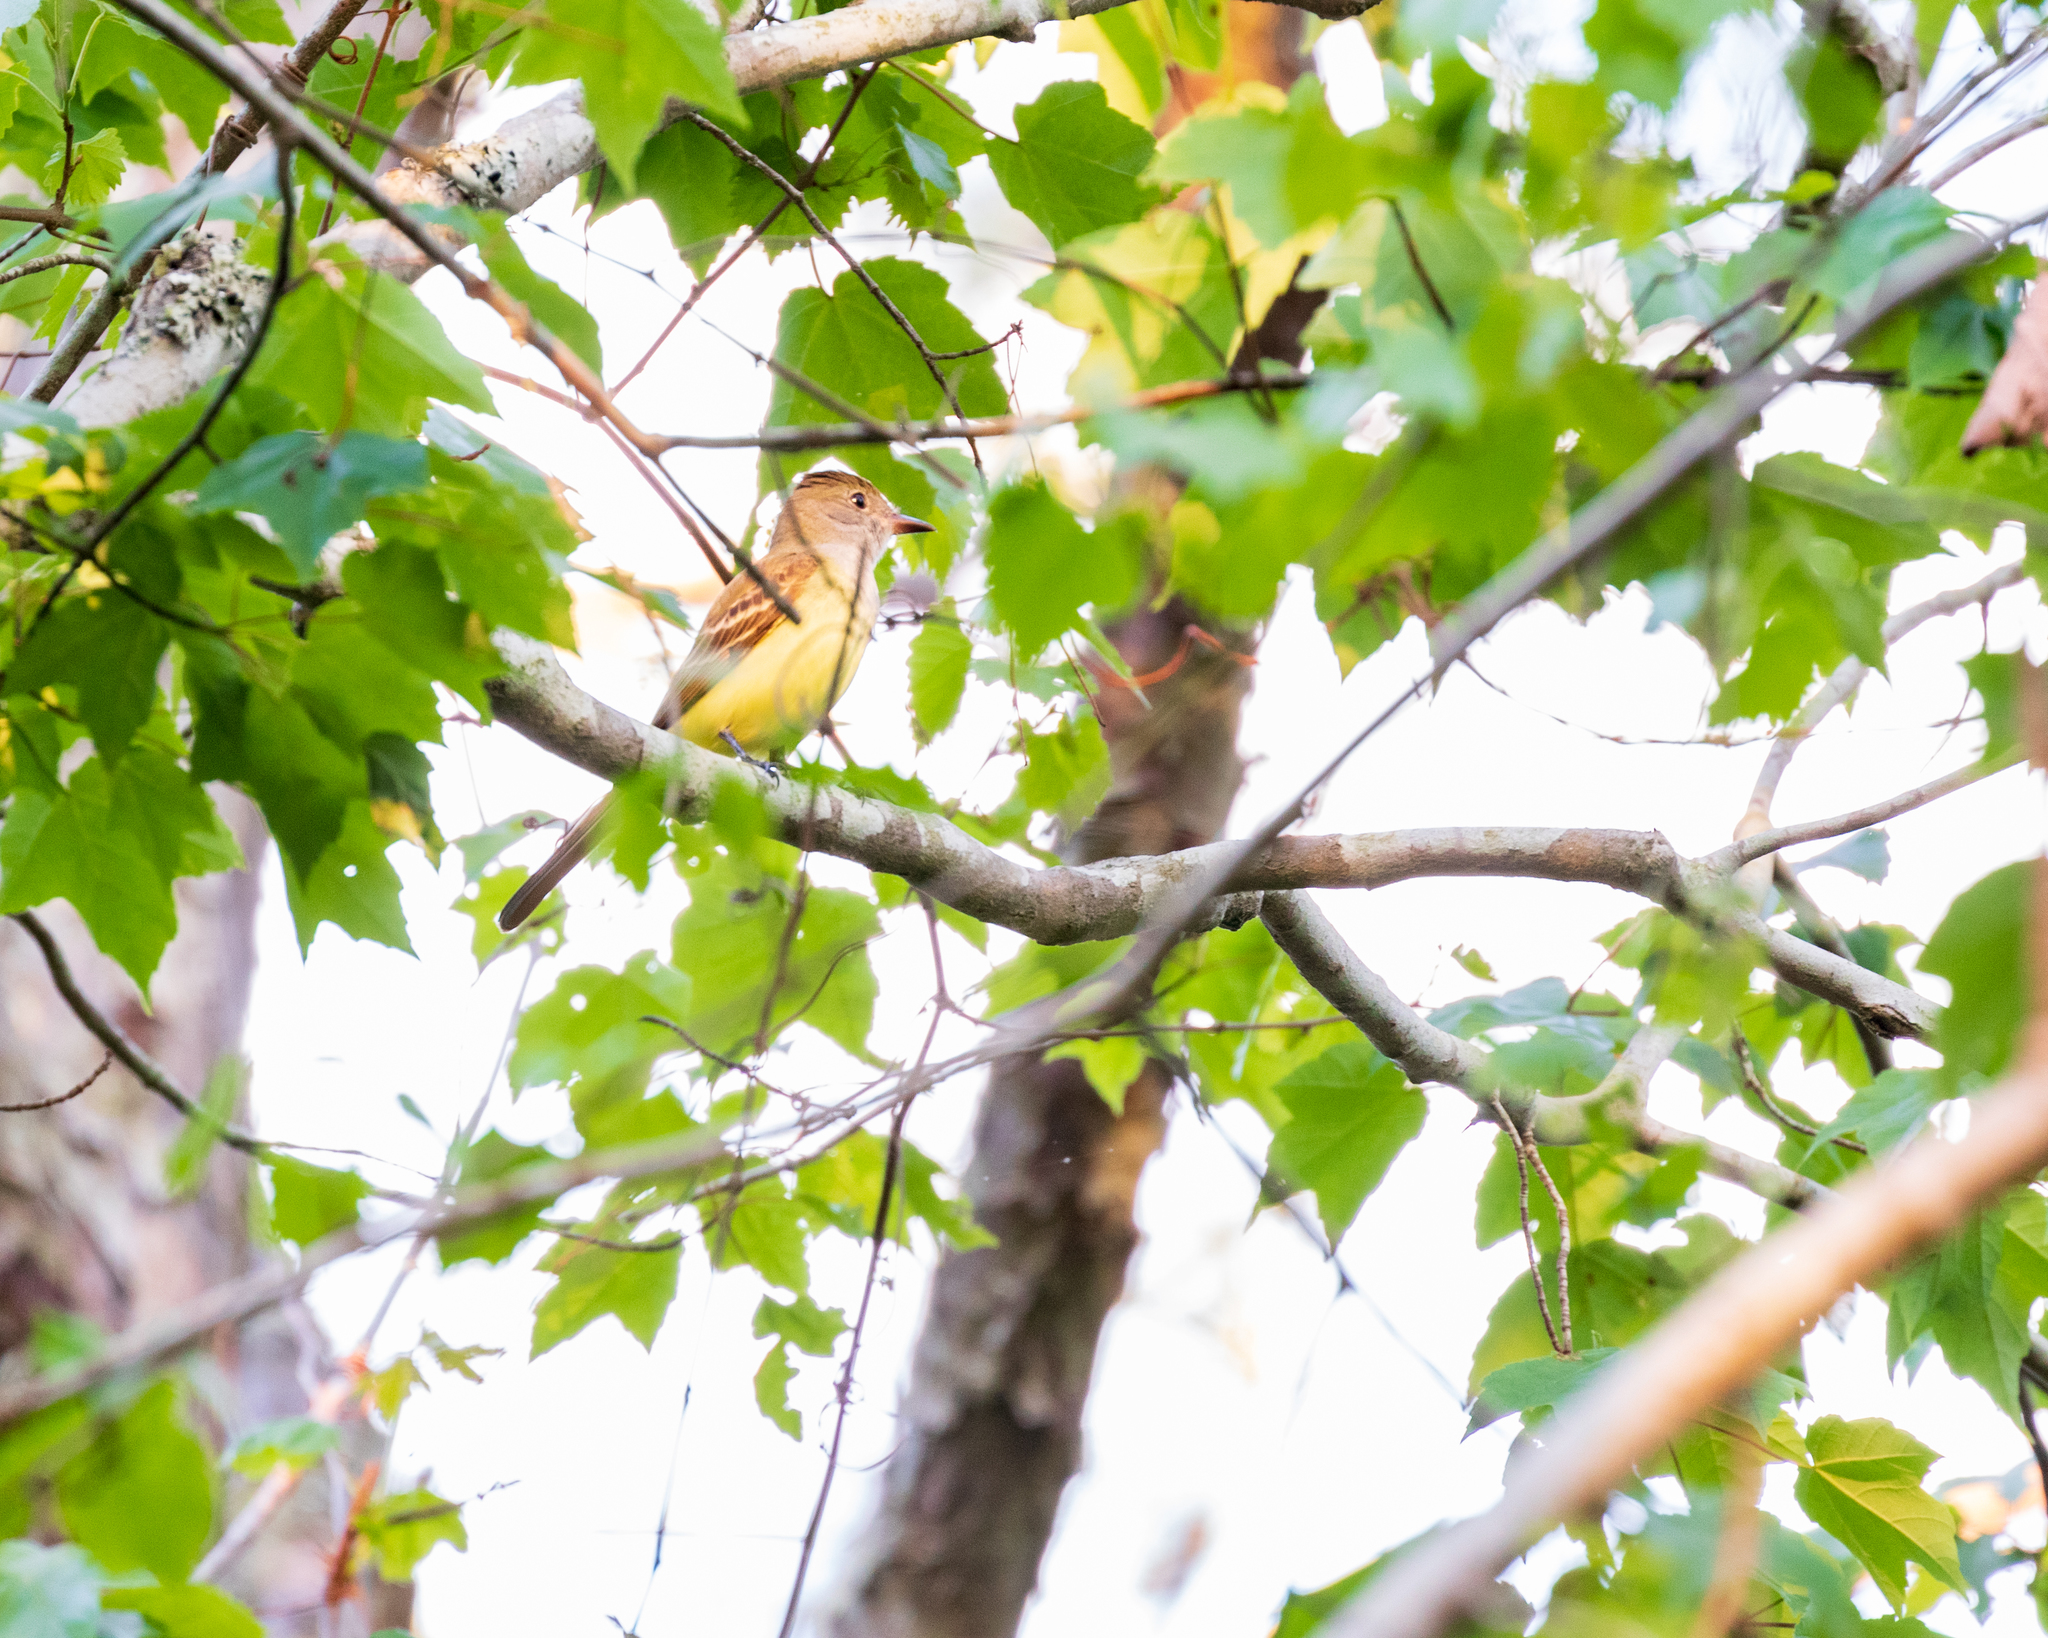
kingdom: Animalia
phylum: Chordata
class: Aves
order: Passeriformes
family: Tyrannidae
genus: Myiarchus
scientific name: Myiarchus crinitus
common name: Great crested flycatcher
